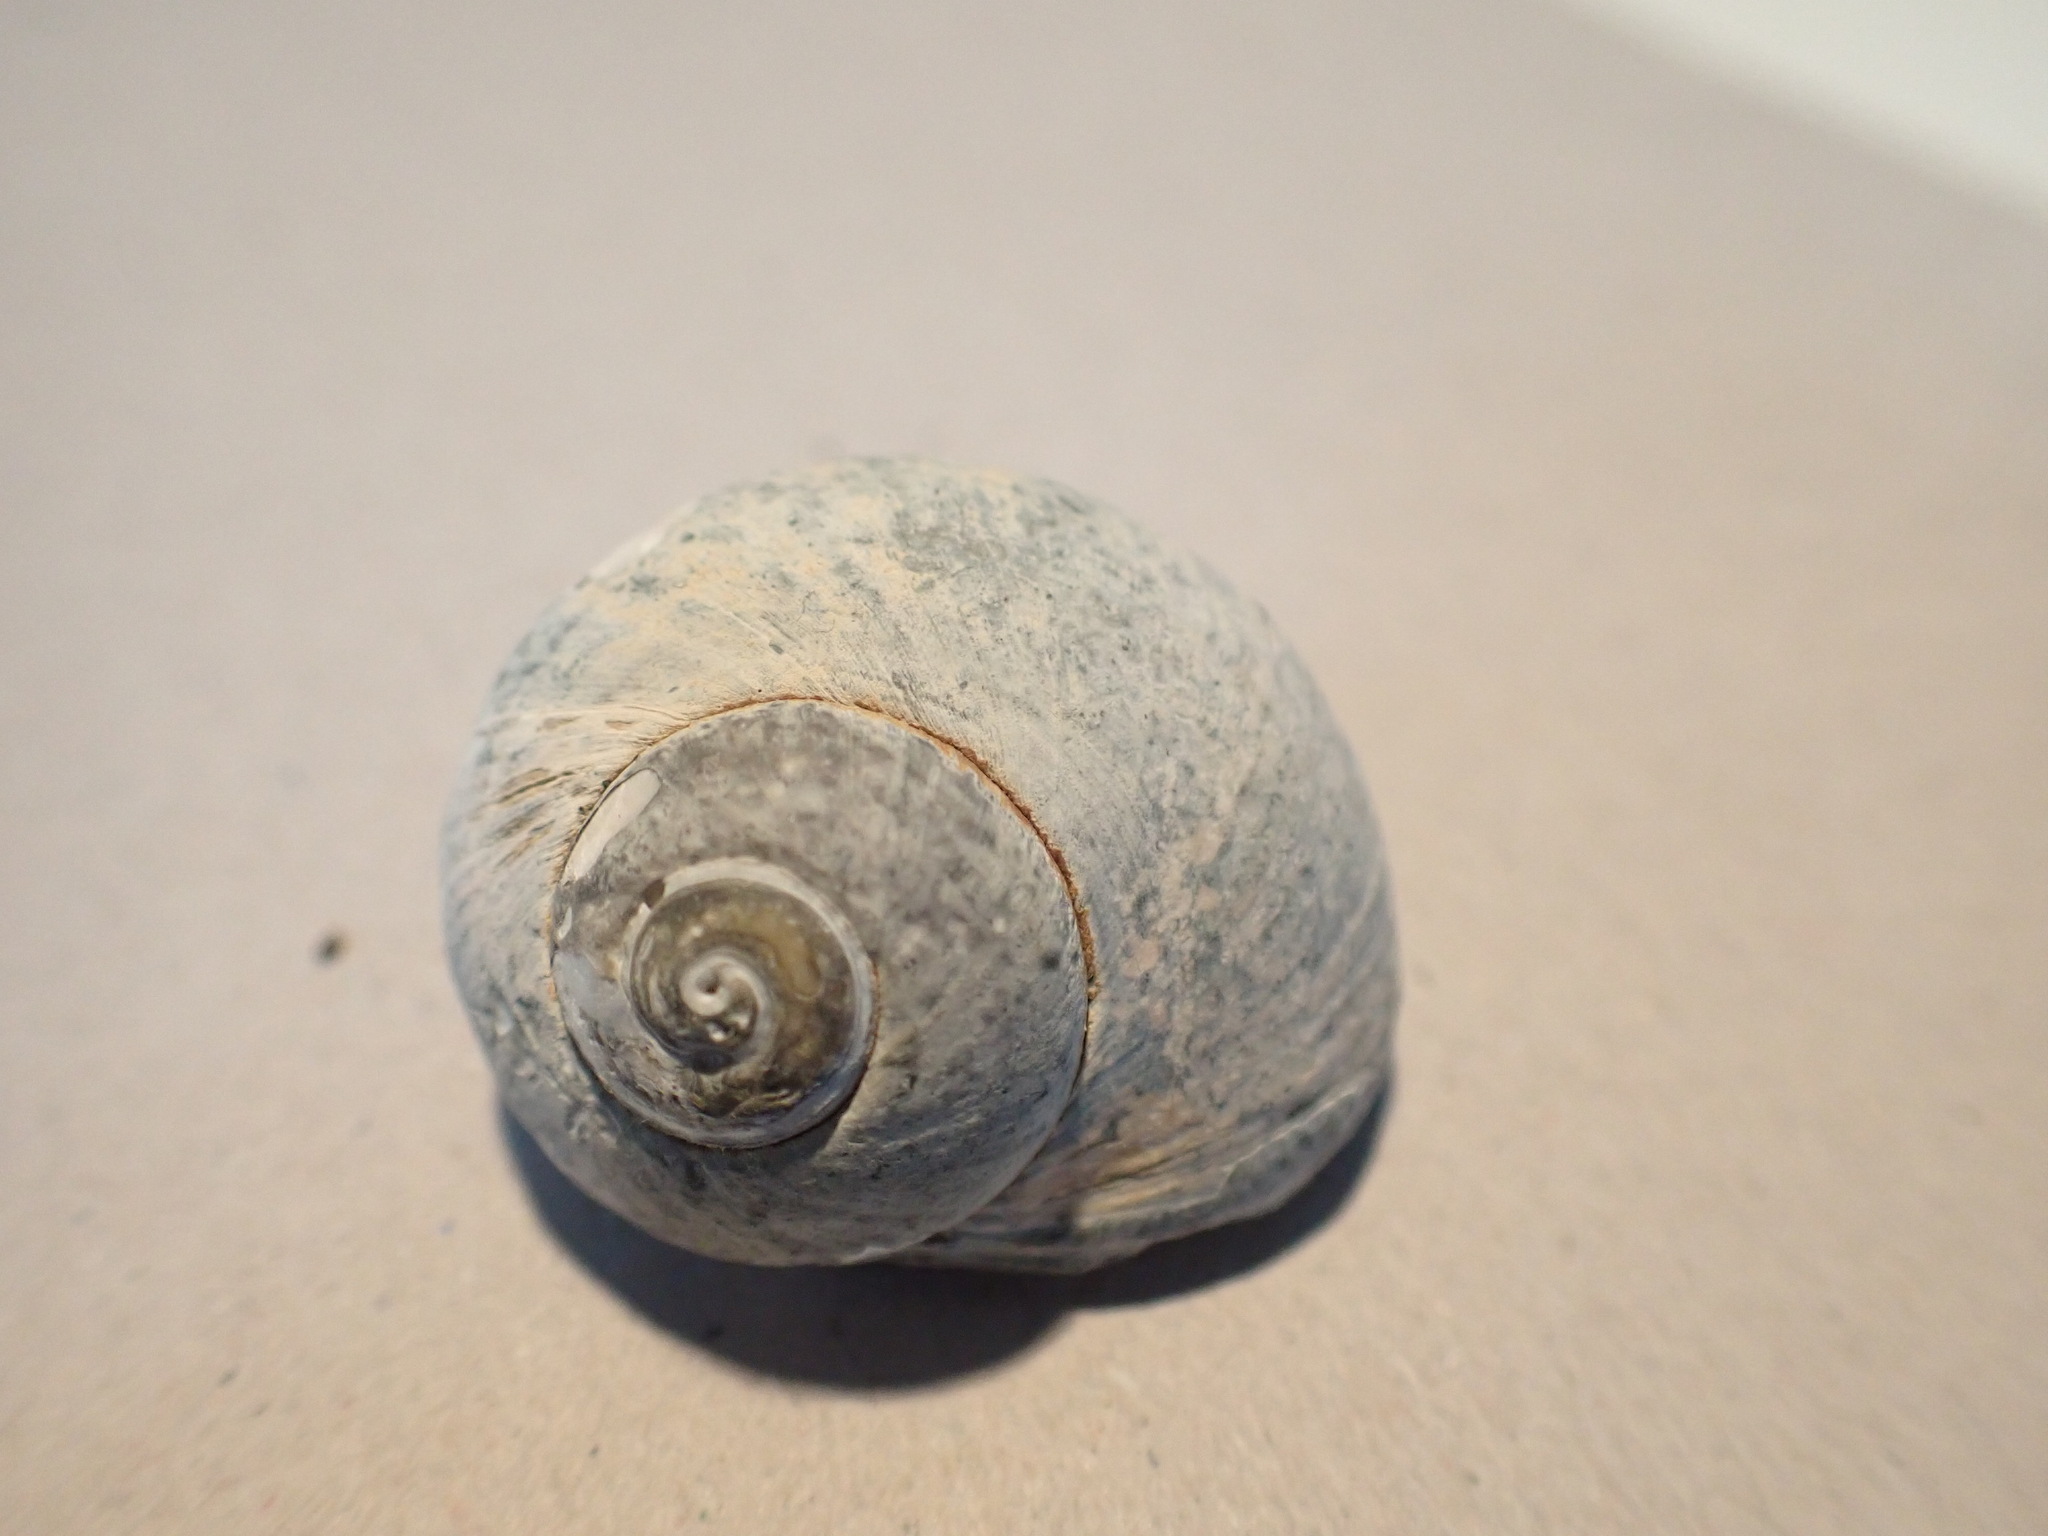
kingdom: Animalia
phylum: Mollusca
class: Gastropoda
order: Trochida
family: Turbinidae
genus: Lunella
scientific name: Lunella smaragda
